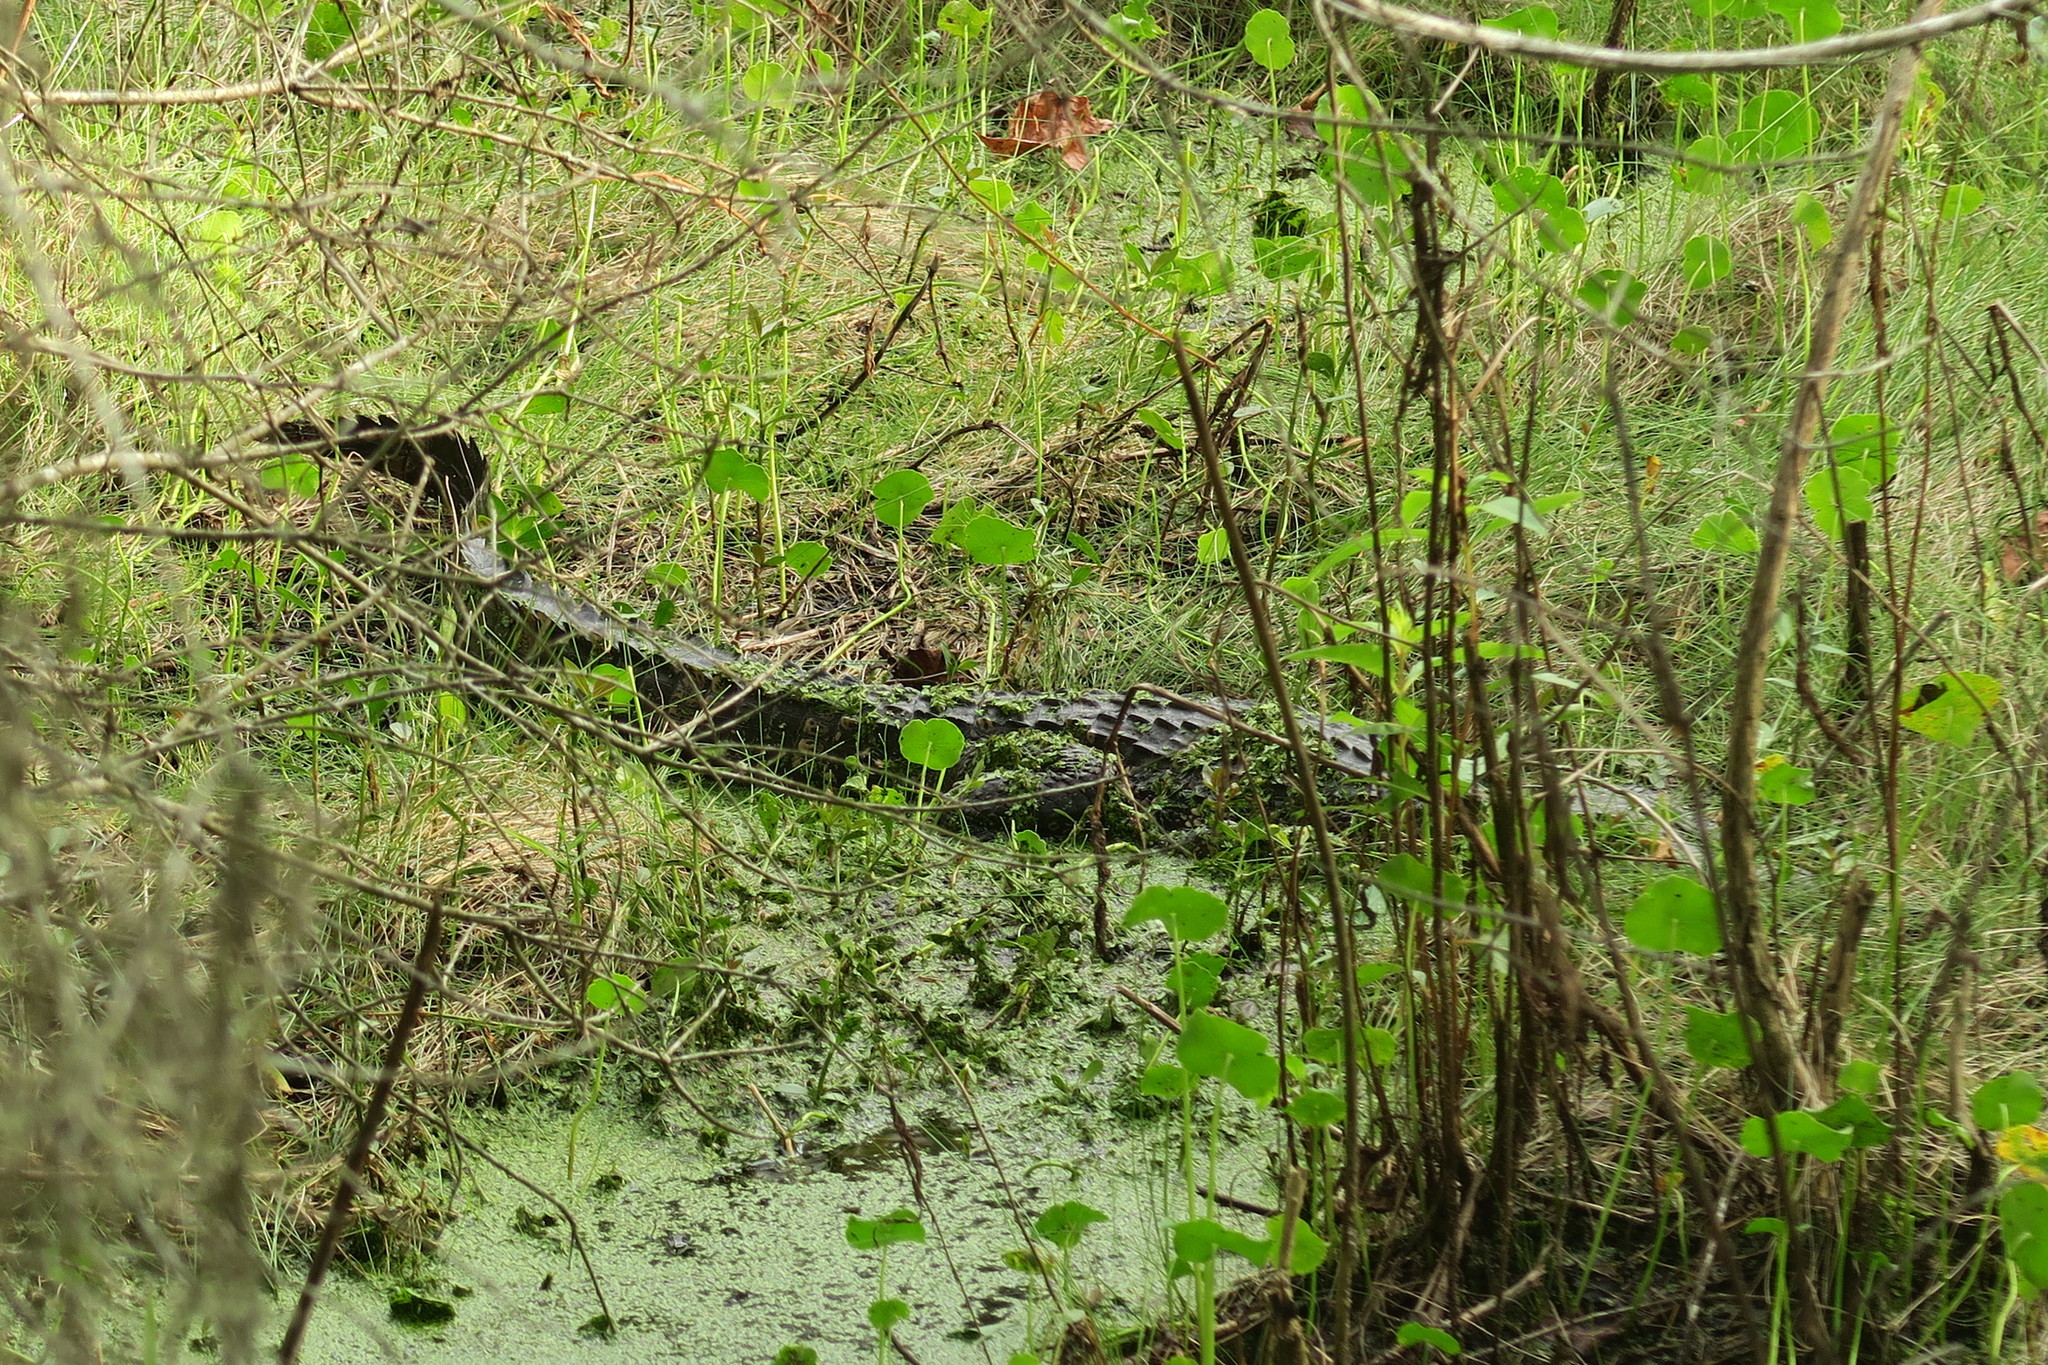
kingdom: Animalia
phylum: Chordata
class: Crocodylia
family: Alligatoridae
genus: Alligator
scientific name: Alligator mississippiensis
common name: American alligator
